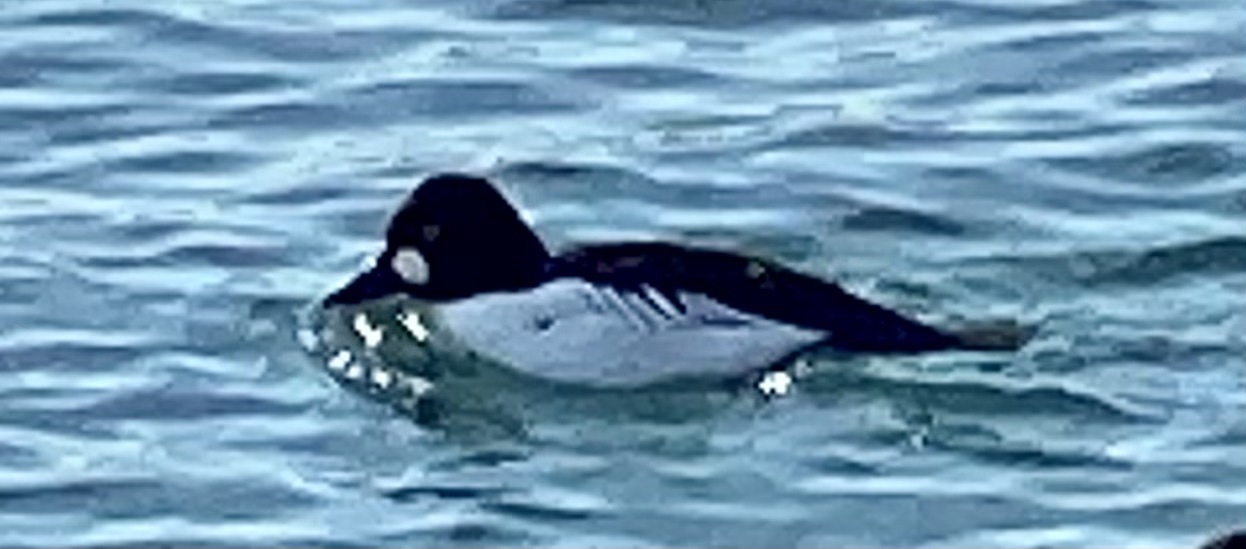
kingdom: Animalia
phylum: Chordata
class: Aves
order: Anseriformes
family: Anatidae
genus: Bucephala
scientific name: Bucephala clangula
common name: Common goldeneye
